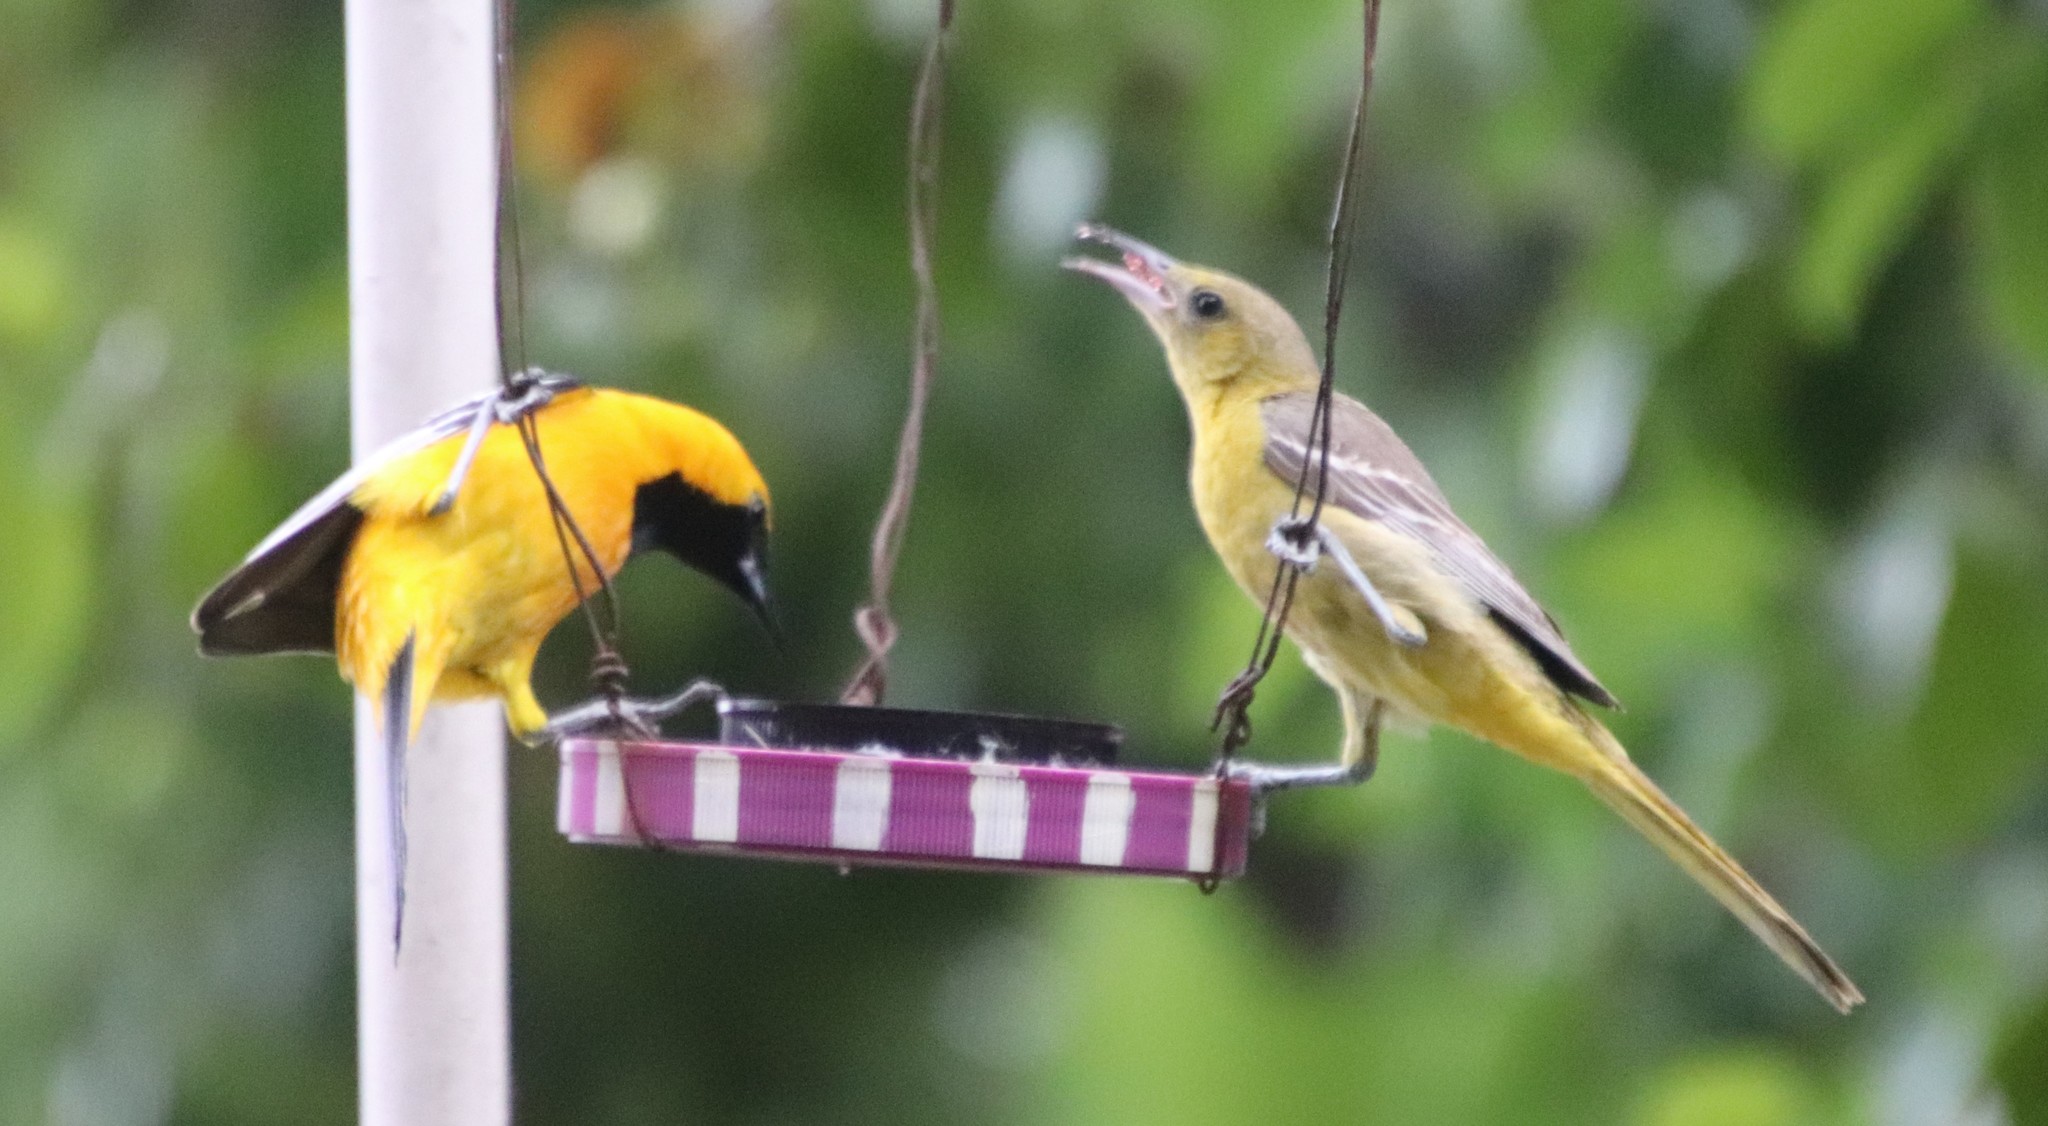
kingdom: Animalia
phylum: Chordata
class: Aves
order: Passeriformes
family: Icteridae
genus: Icterus
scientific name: Icterus cucullatus
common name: Hooded oriole
